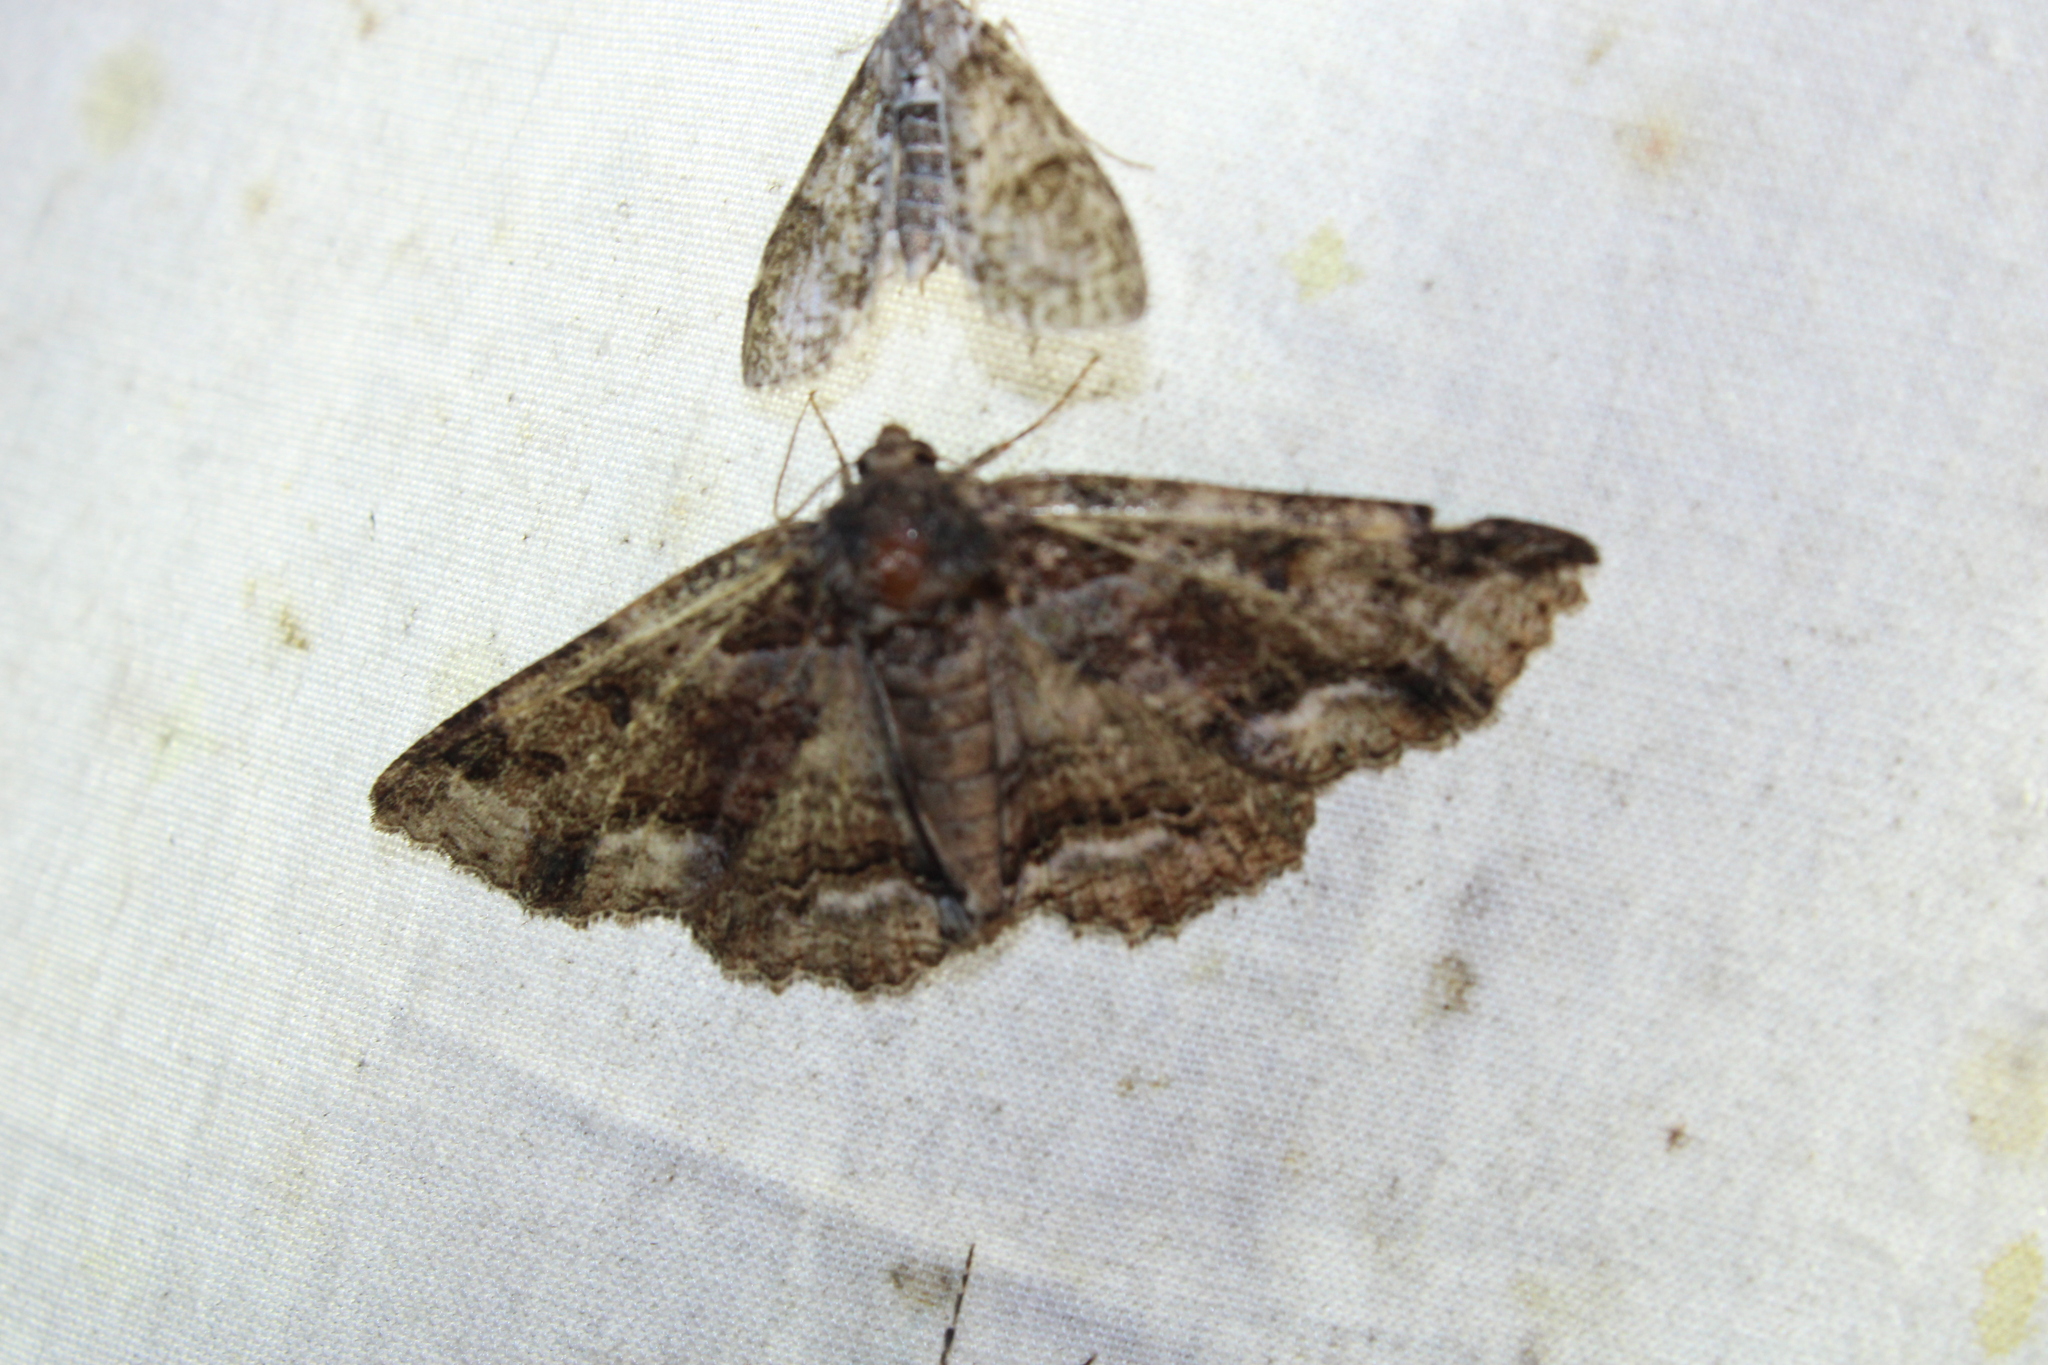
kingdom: Animalia
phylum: Arthropoda
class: Insecta
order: Lepidoptera
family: Erebidae
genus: Zale
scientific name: Zale minerea
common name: Colorful zale moth
